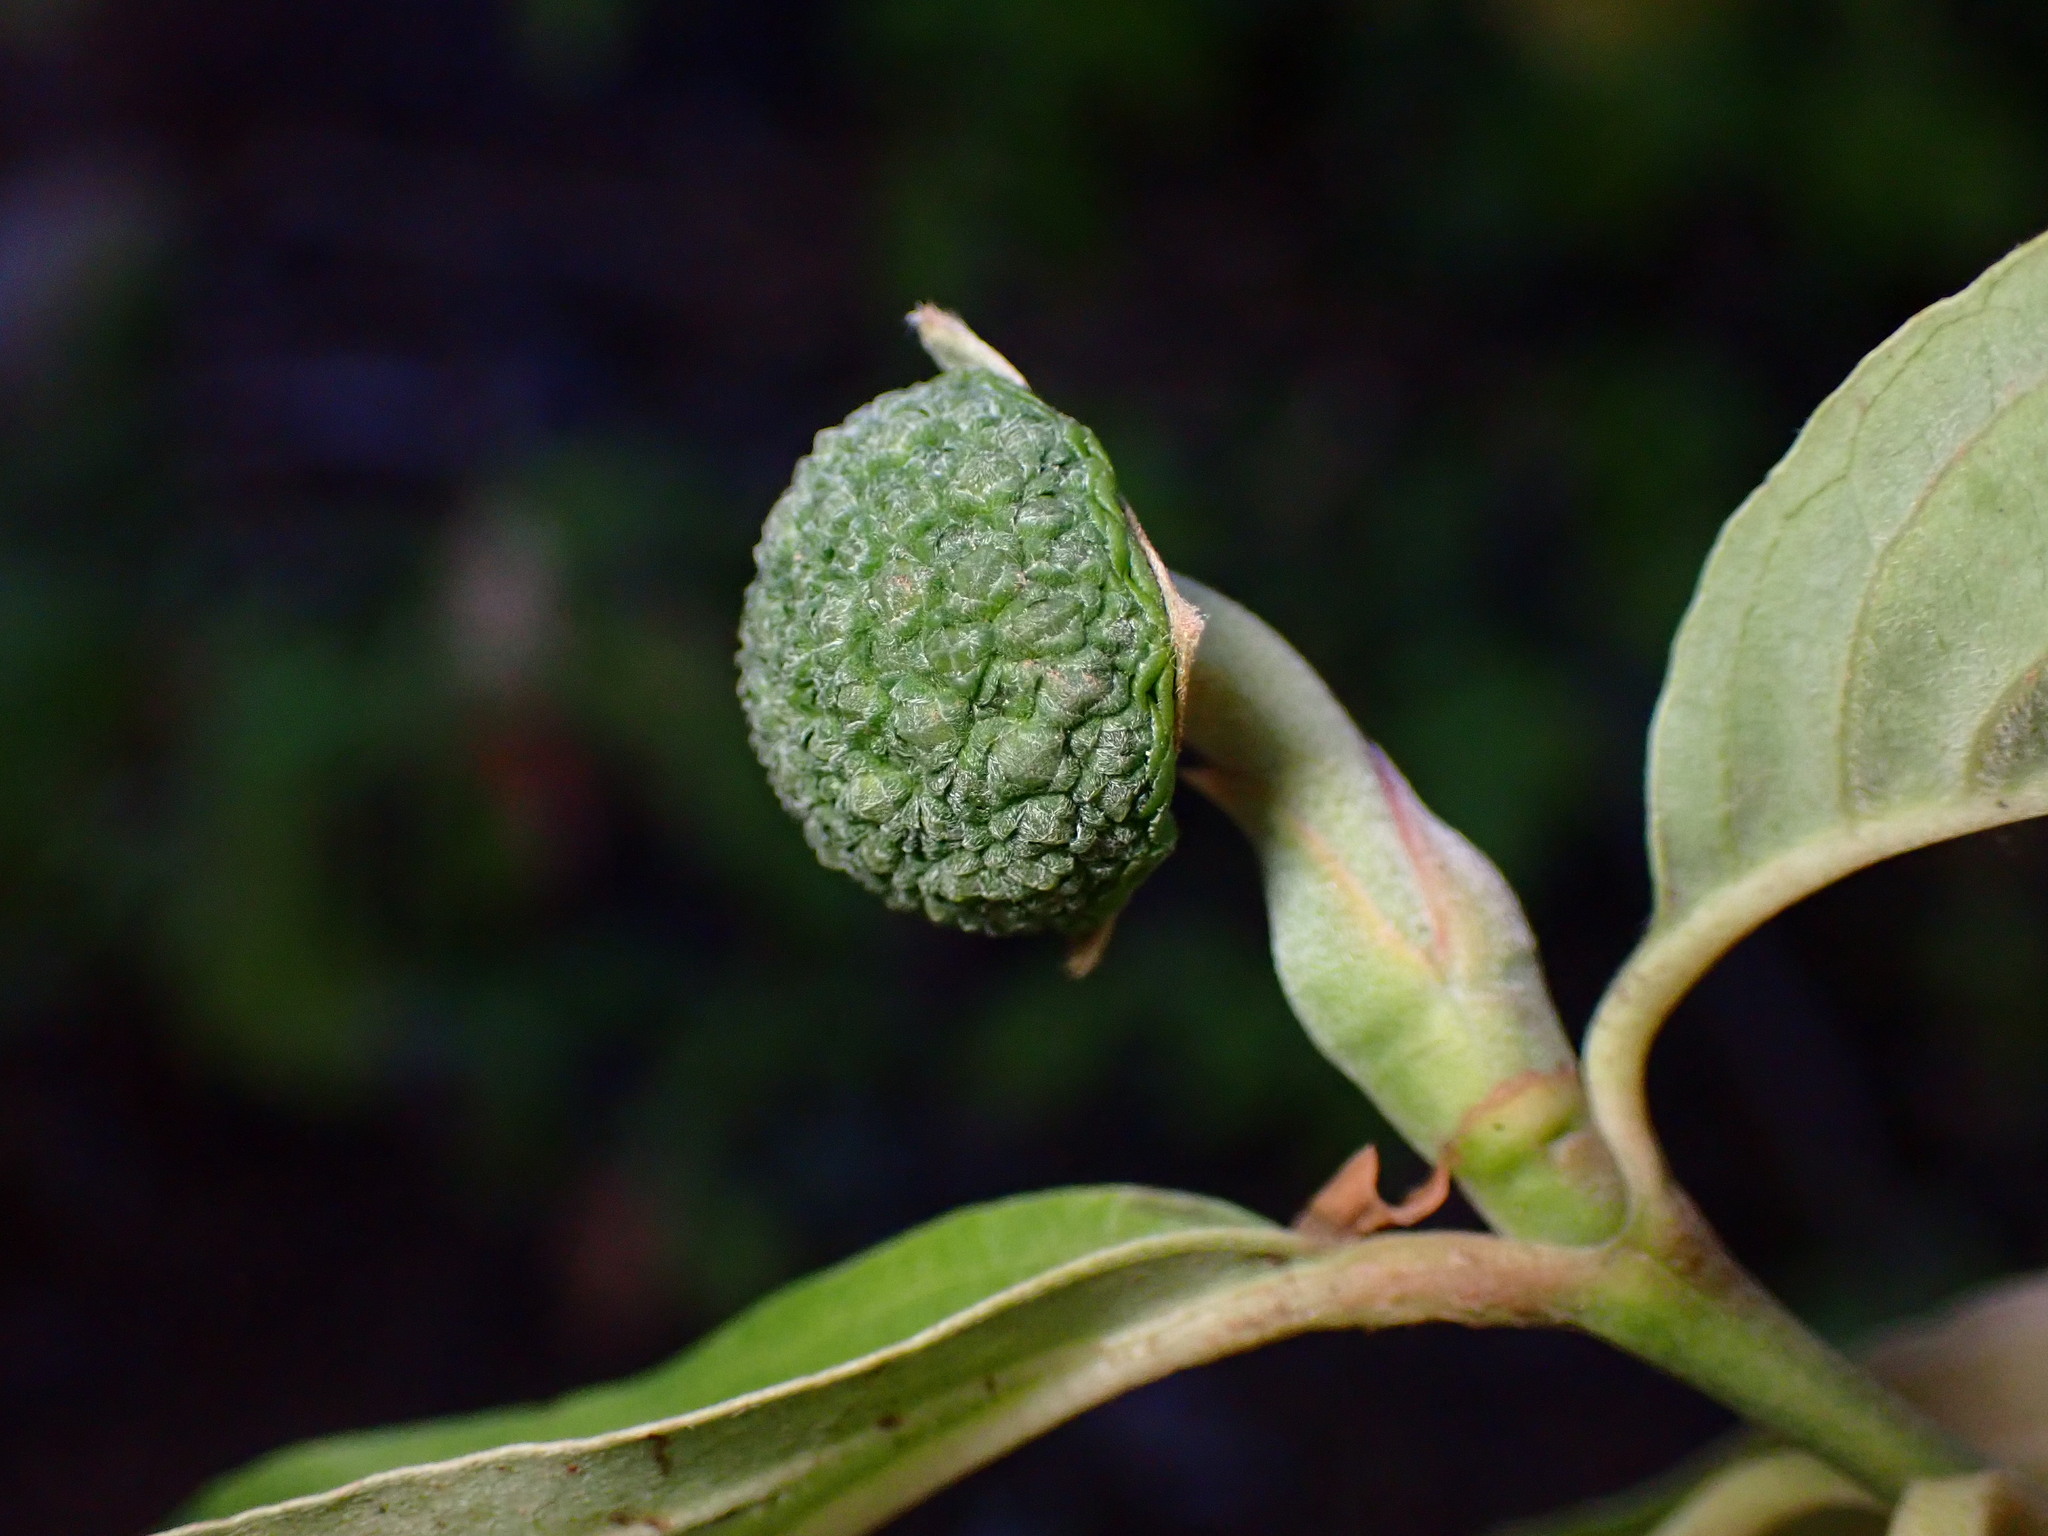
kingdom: Plantae
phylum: Tracheophyta
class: Magnoliopsida
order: Cornales
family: Cornaceae
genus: Cornus
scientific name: Cornus nuttallii
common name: Pacific dogwood
